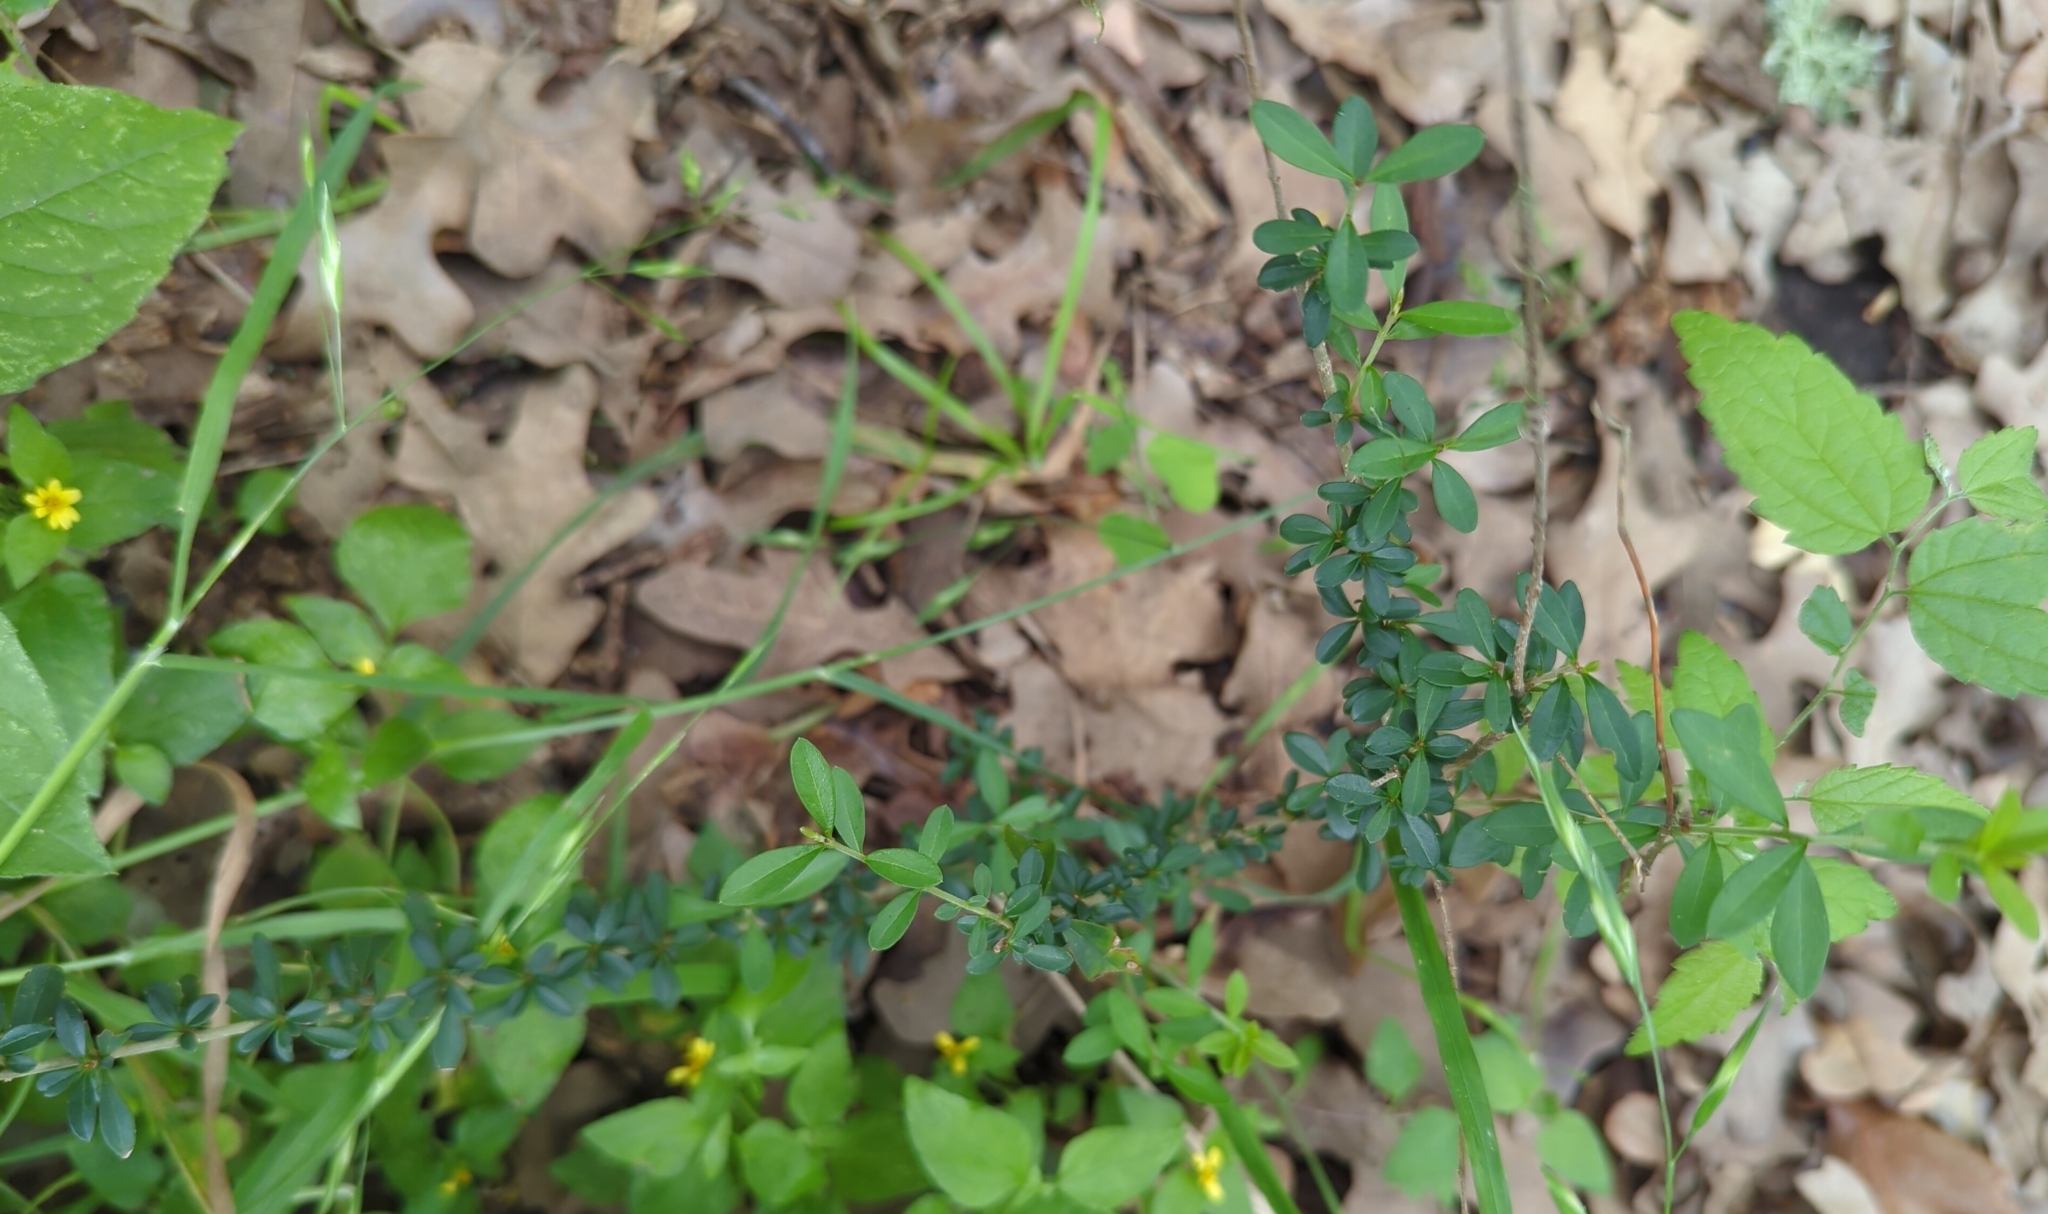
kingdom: Plantae
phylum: Tracheophyta
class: Magnoliopsida
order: Lamiales
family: Oleaceae
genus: Ligustrum
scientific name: Ligustrum quihoui
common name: Waxyleaf privet
